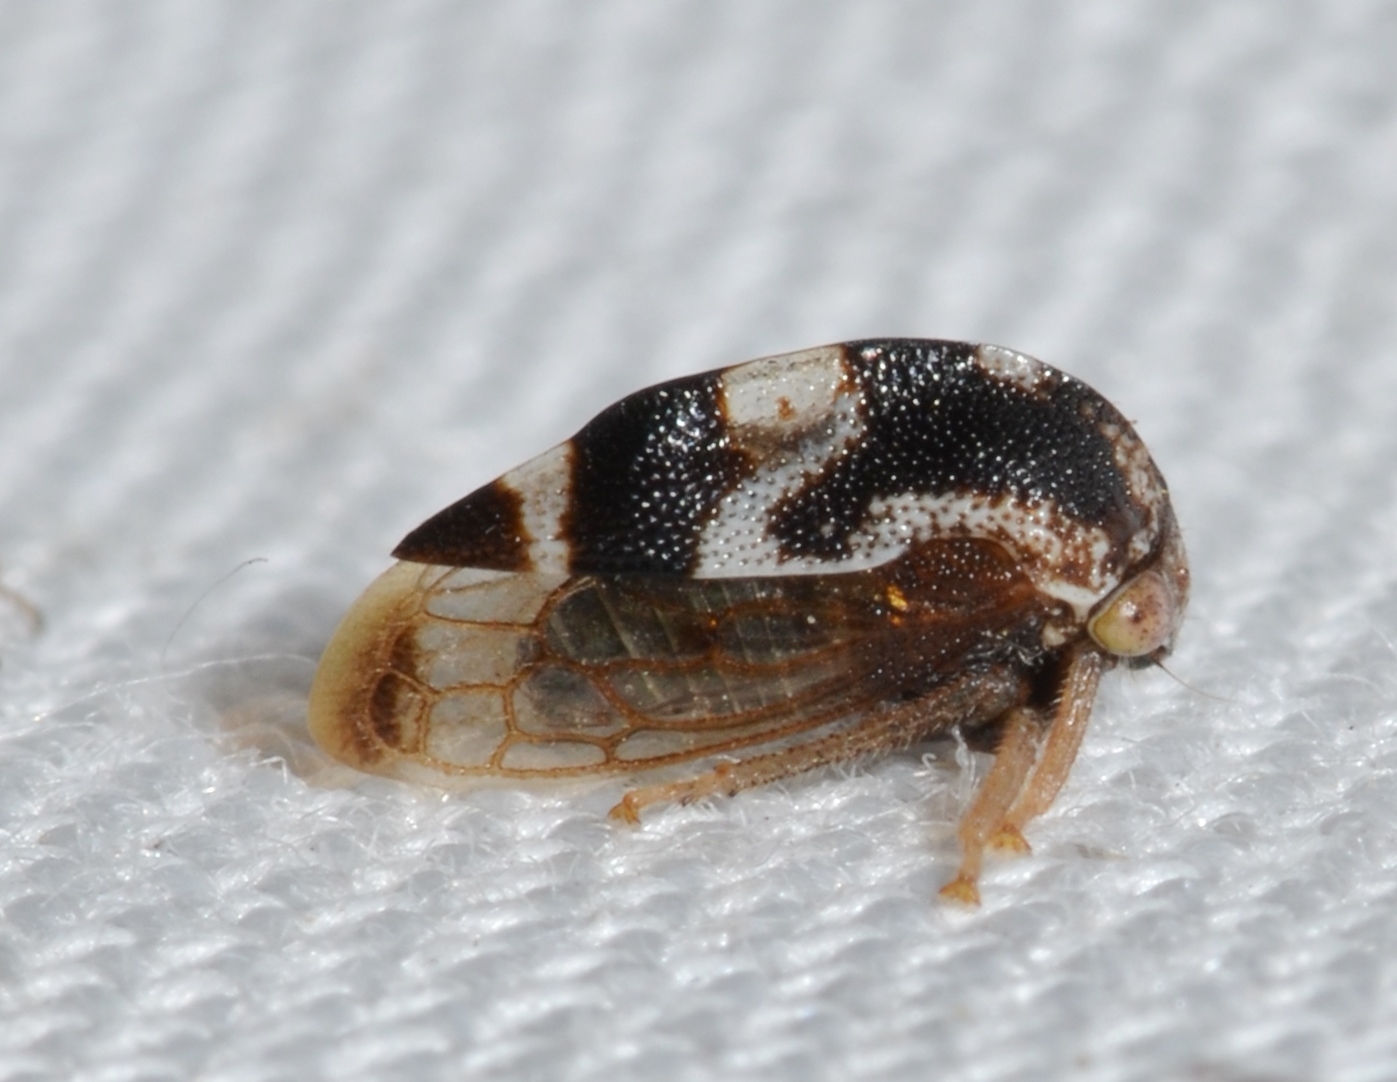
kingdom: Animalia
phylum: Arthropoda
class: Insecta
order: Hemiptera
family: Membracidae
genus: Cyrtolobus
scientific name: Cyrtolobus puritanus
